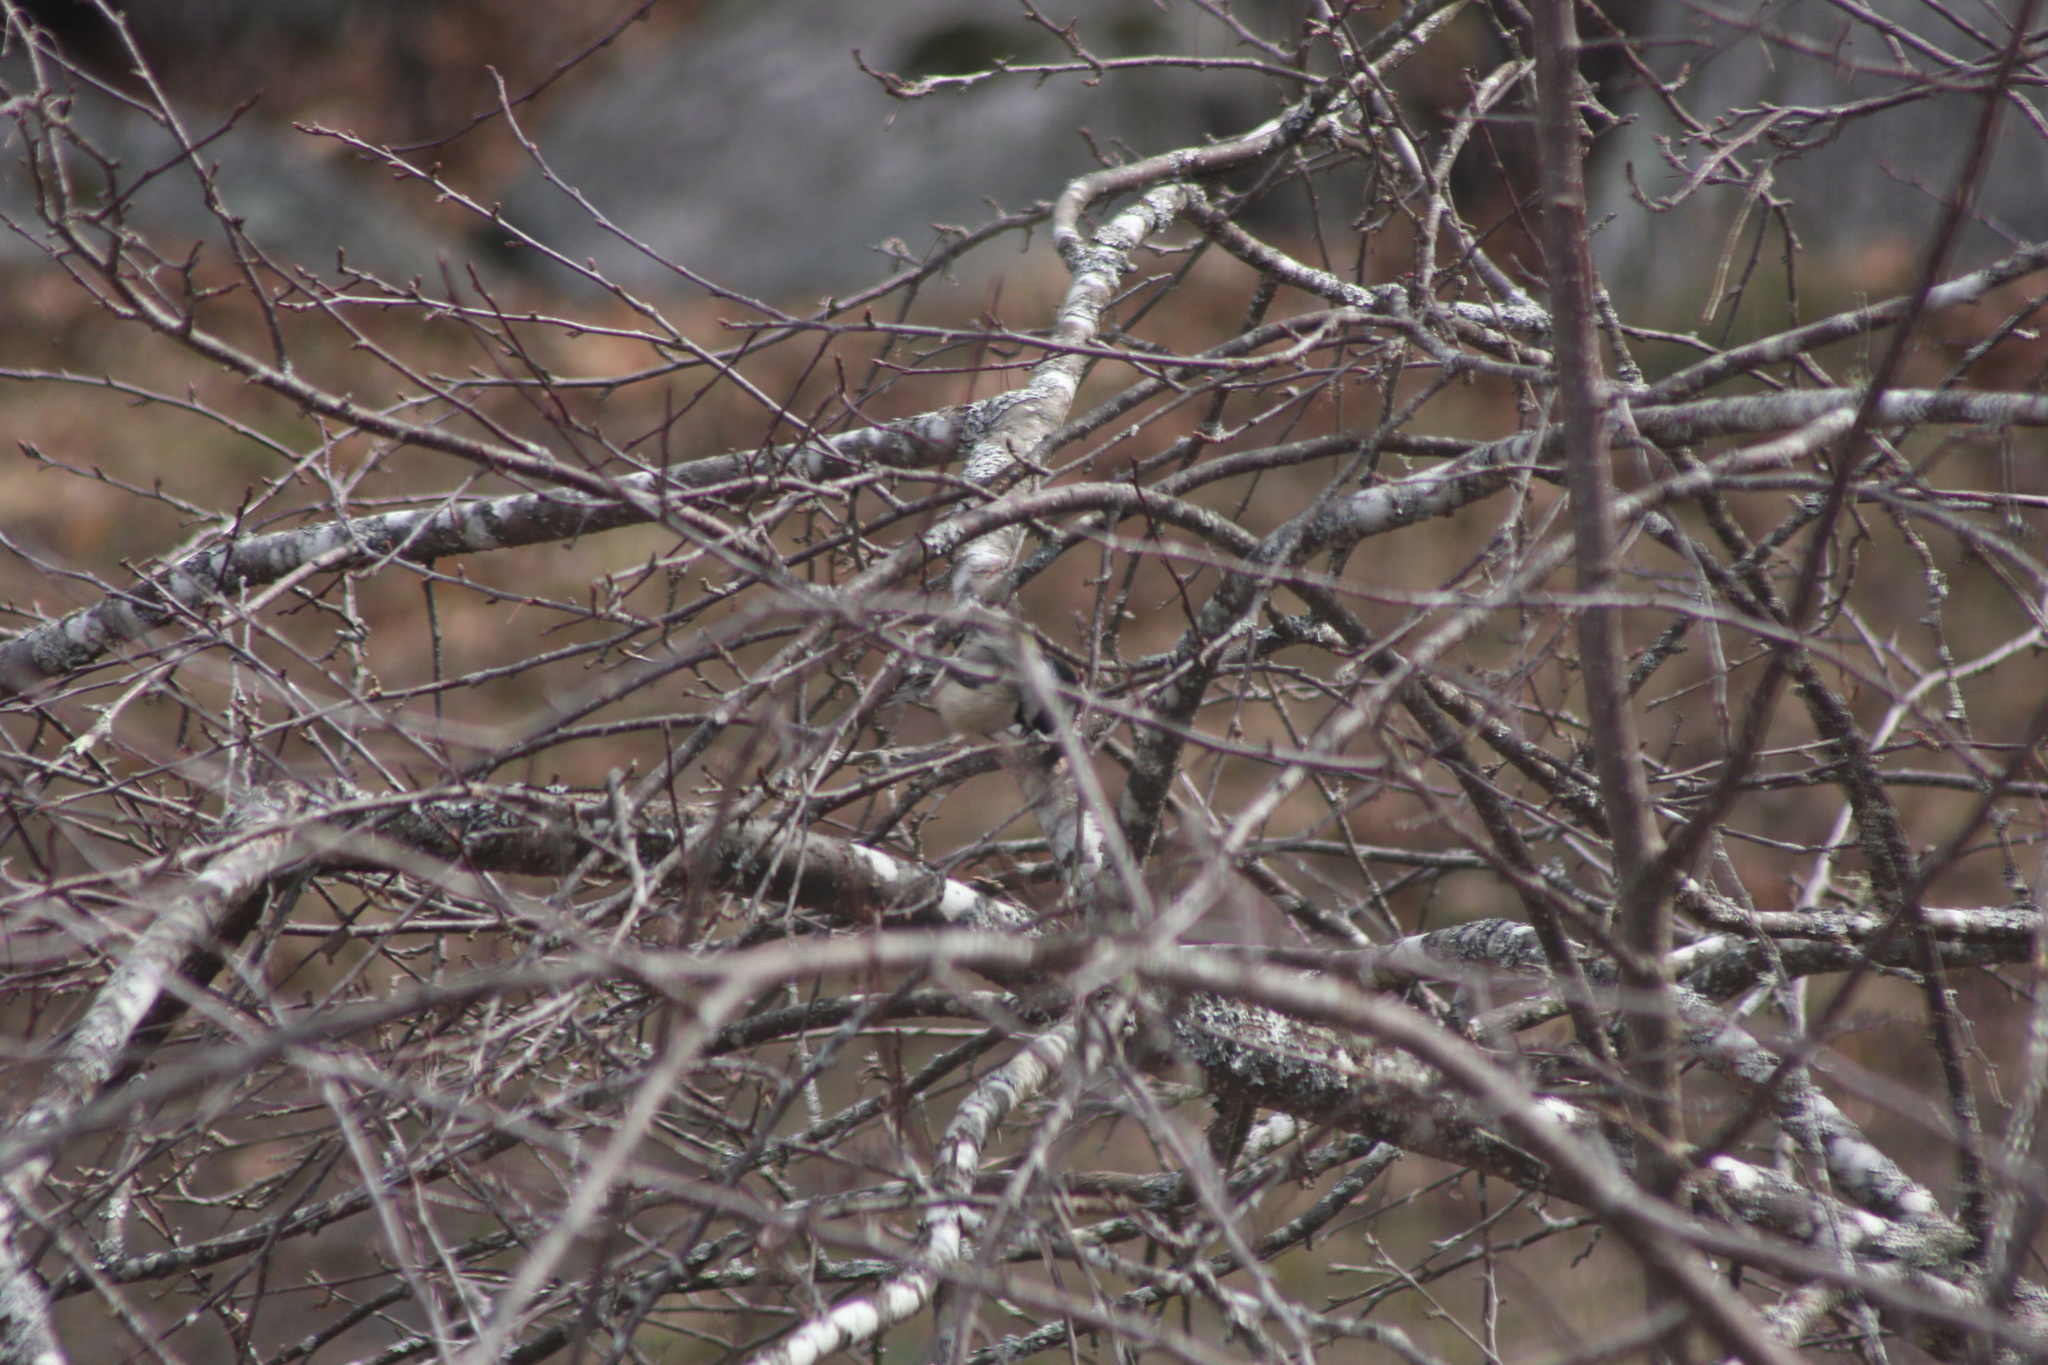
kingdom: Animalia
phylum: Chordata
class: Aves
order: Passeriformes
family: Paridae
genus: Poecile
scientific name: Poecile atricapillus
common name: Black-capped chickadee
